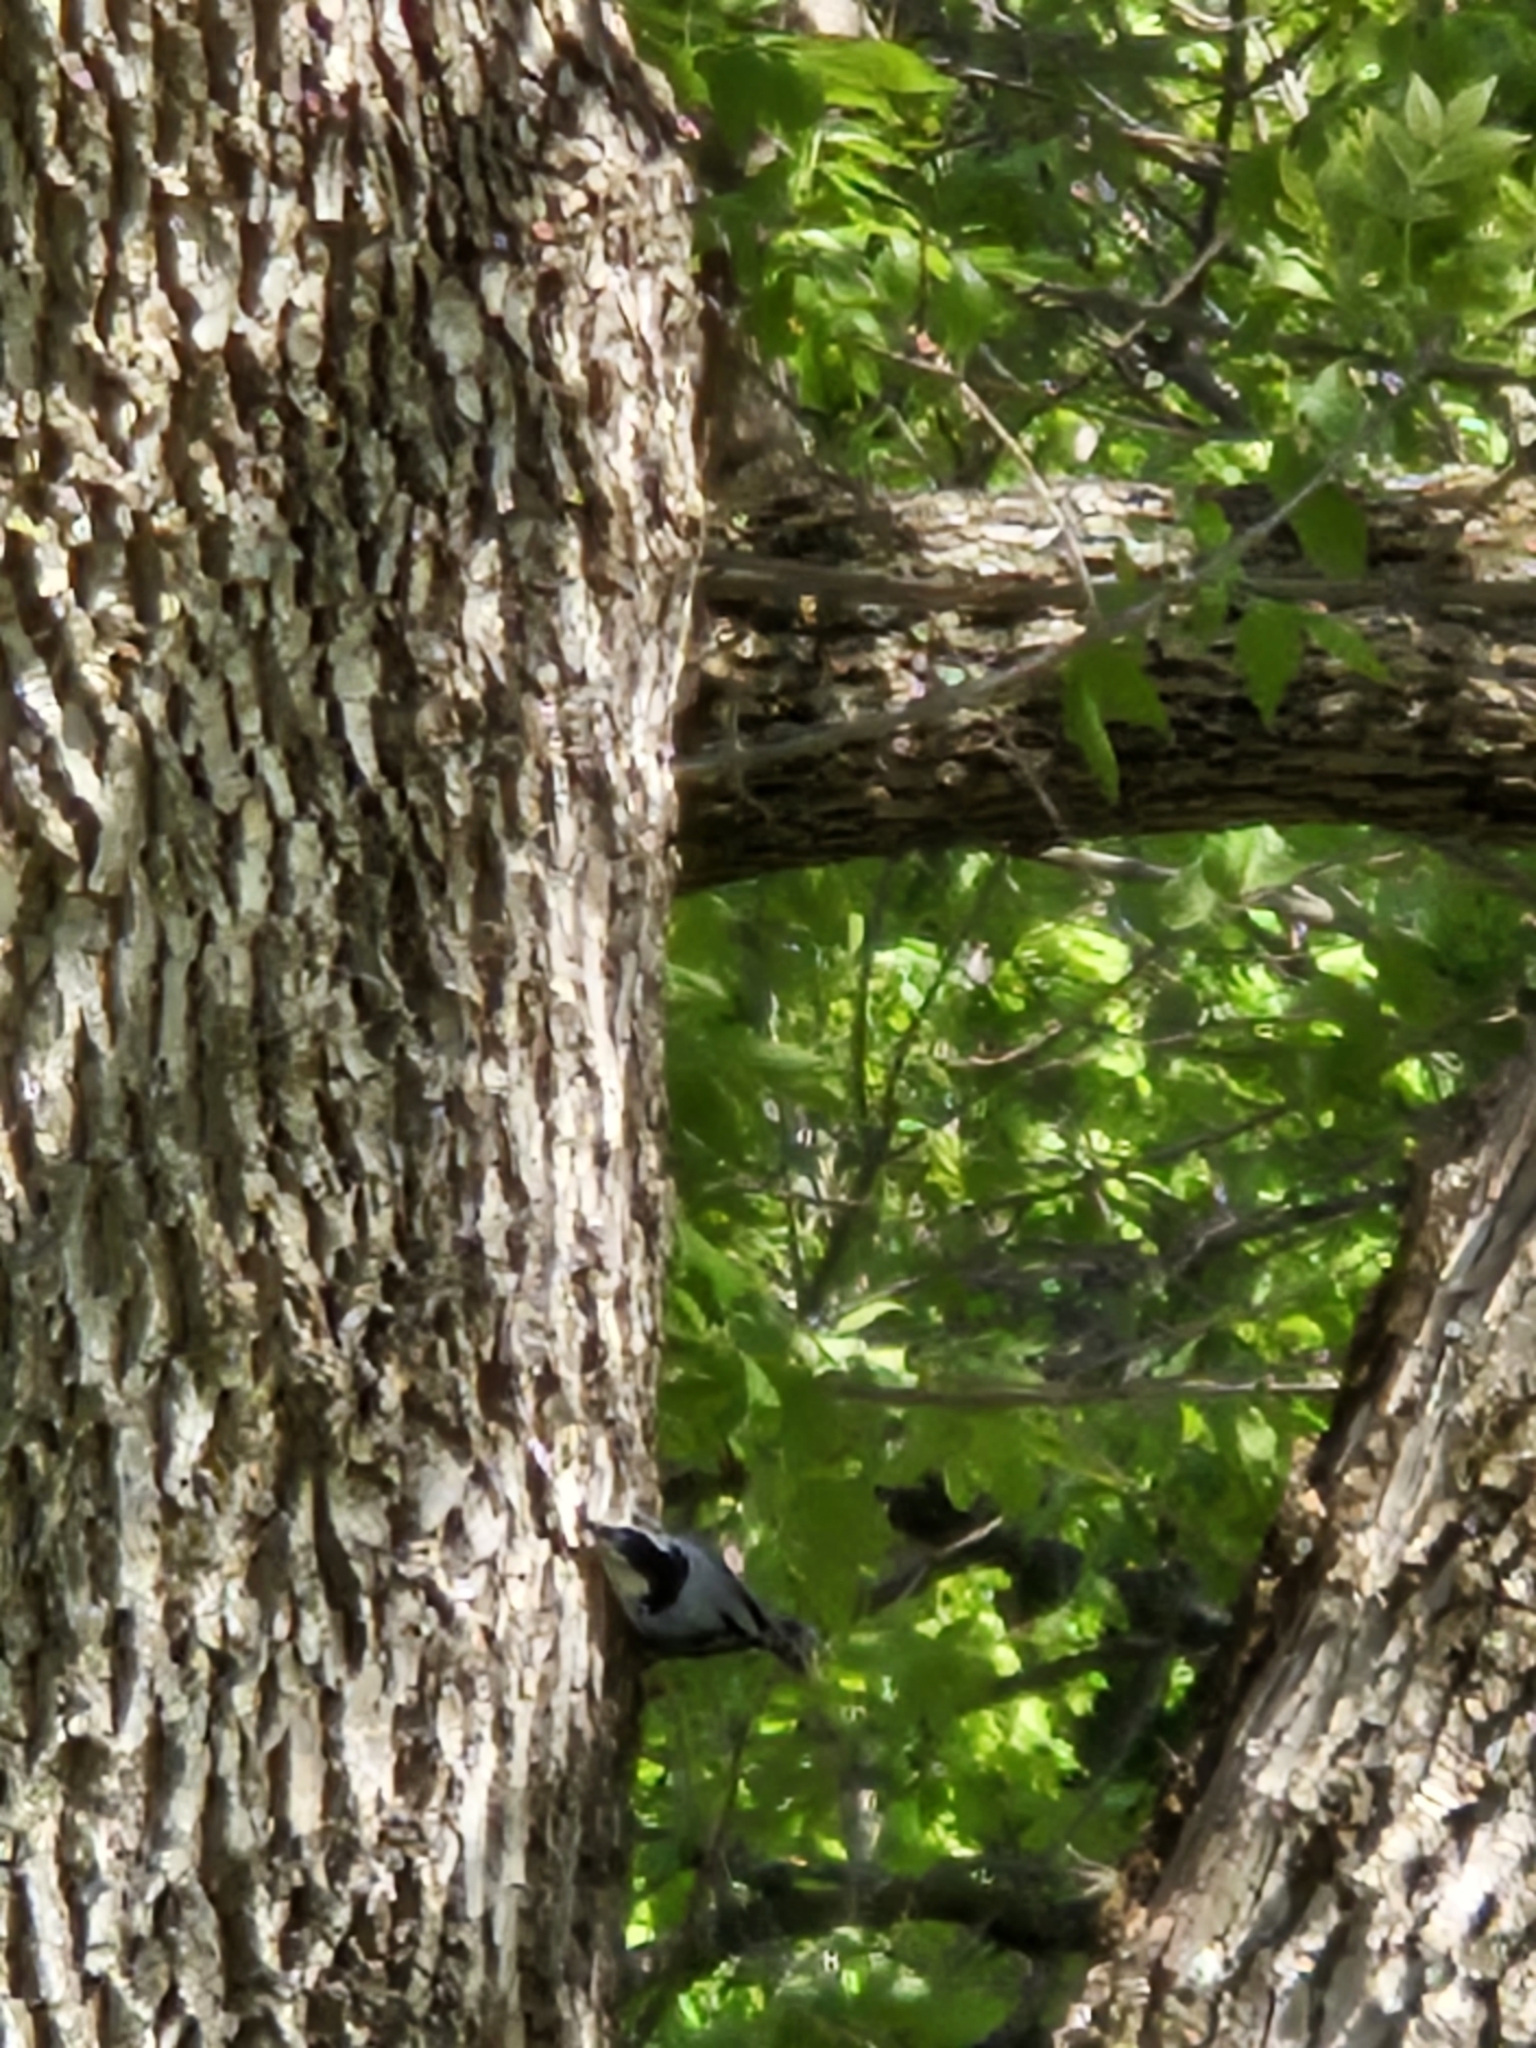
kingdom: Animalia
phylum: Chordata
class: Aves
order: Passeriformes
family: Sittidae
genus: Sitta
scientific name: Sitta carolinensis
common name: White-breasted nuthatch
